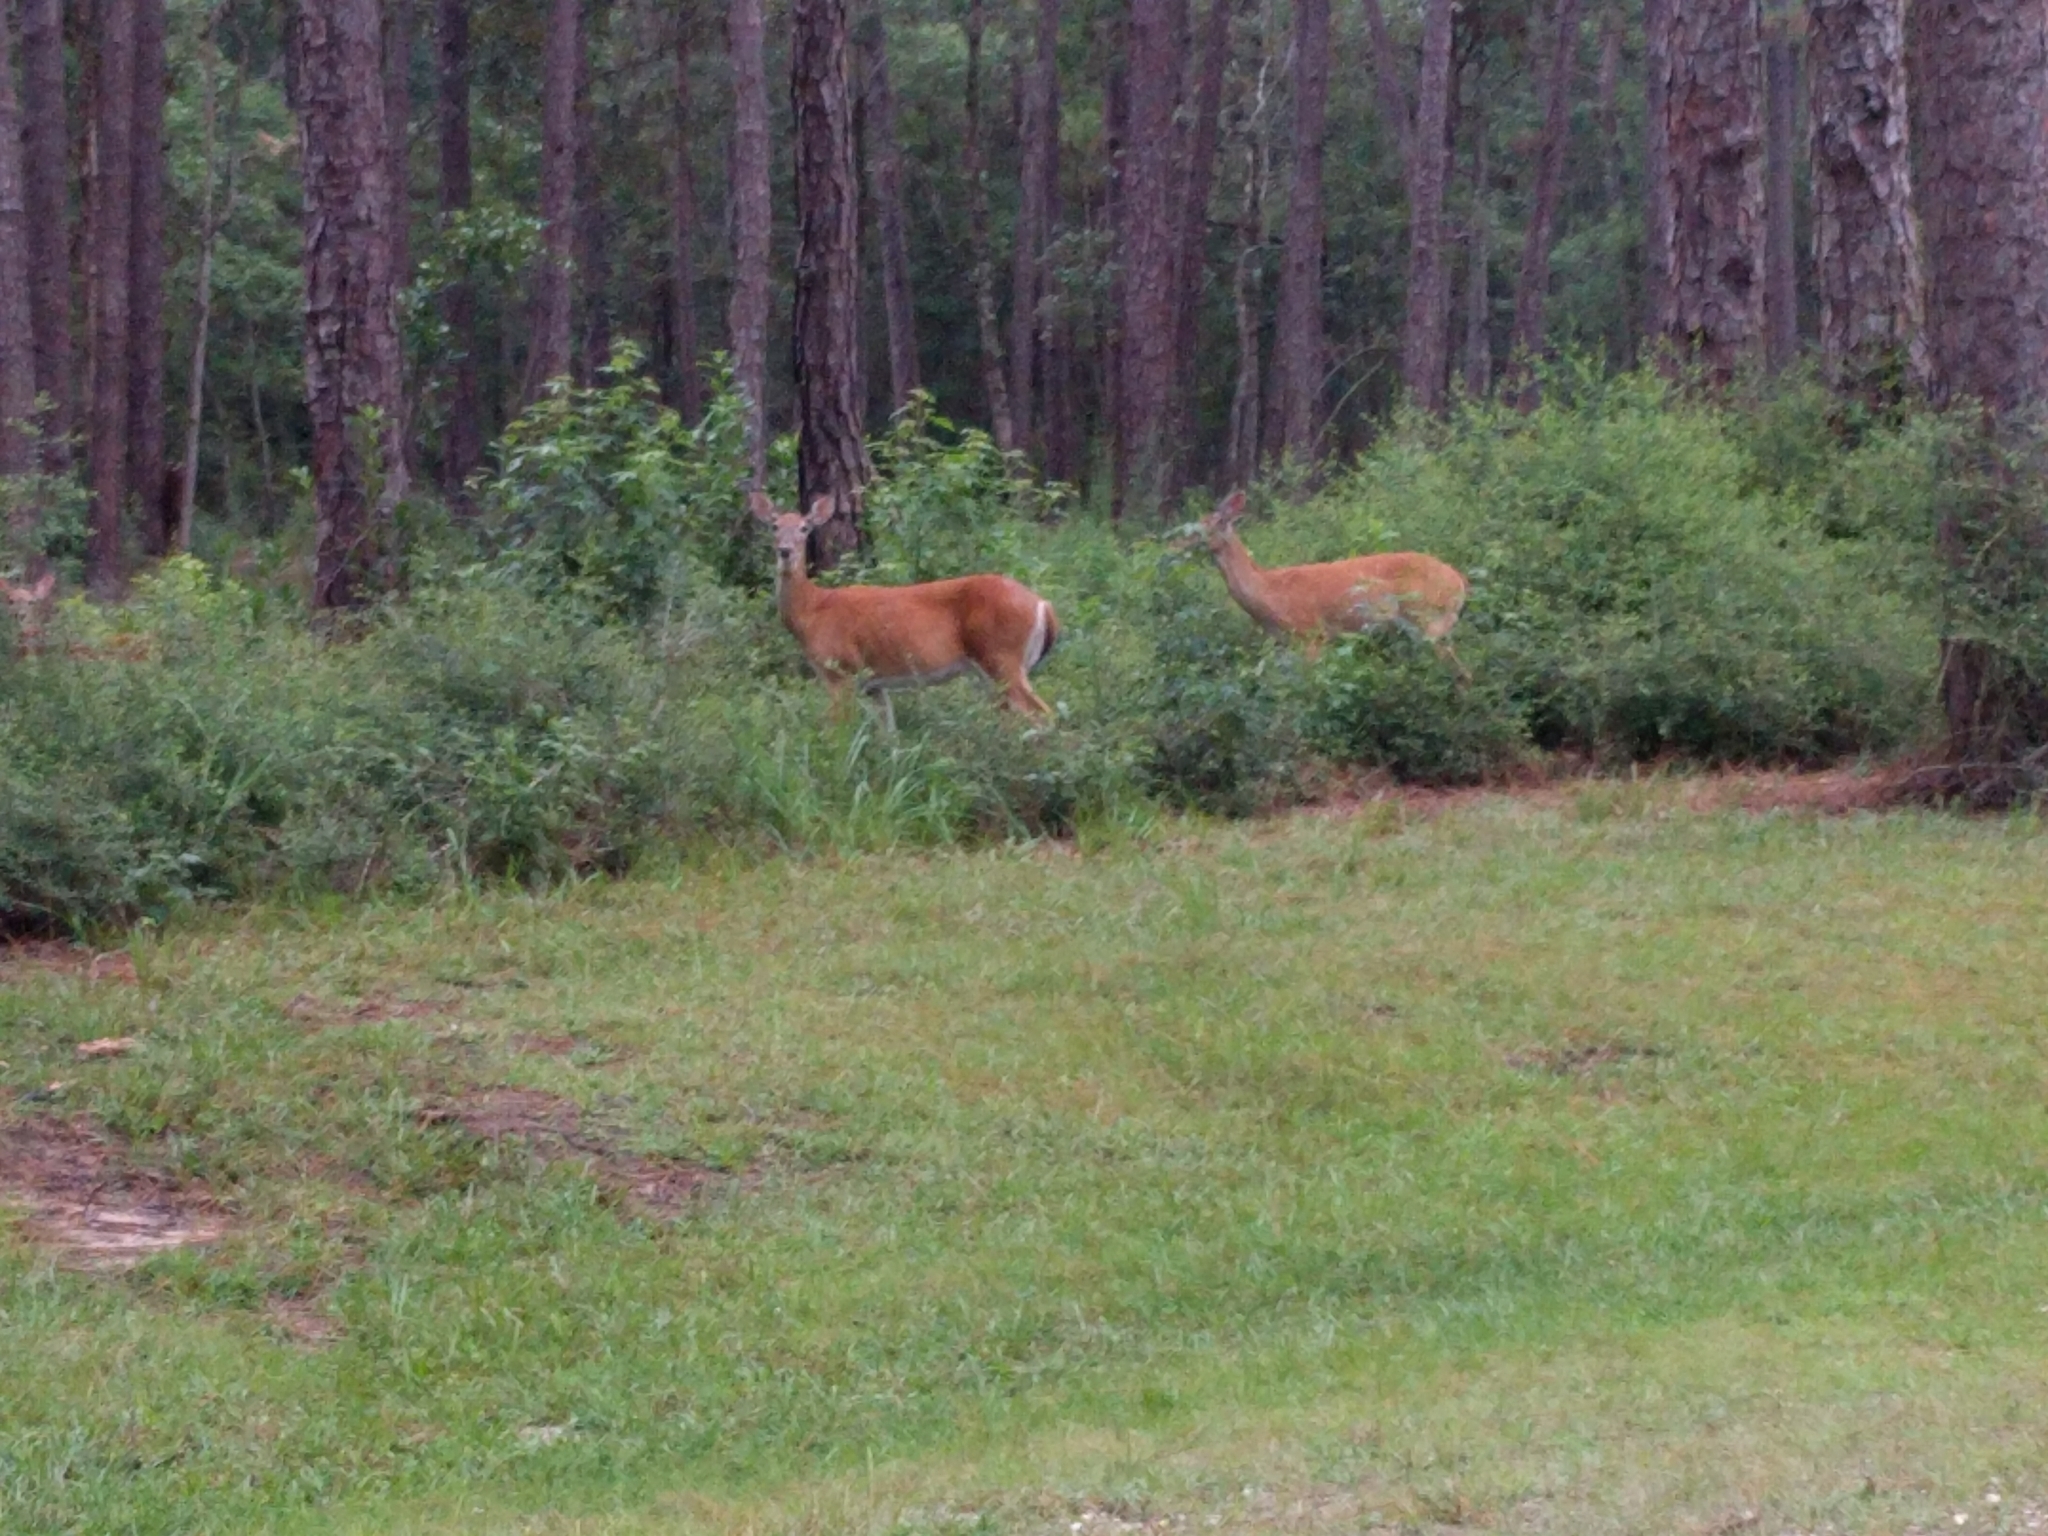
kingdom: Animalia
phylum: Chordata
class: Mammalia
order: Artiodactyla
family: Cervidae
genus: Odocoileus
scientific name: Odocoileus virginianus
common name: White-tailed deer
